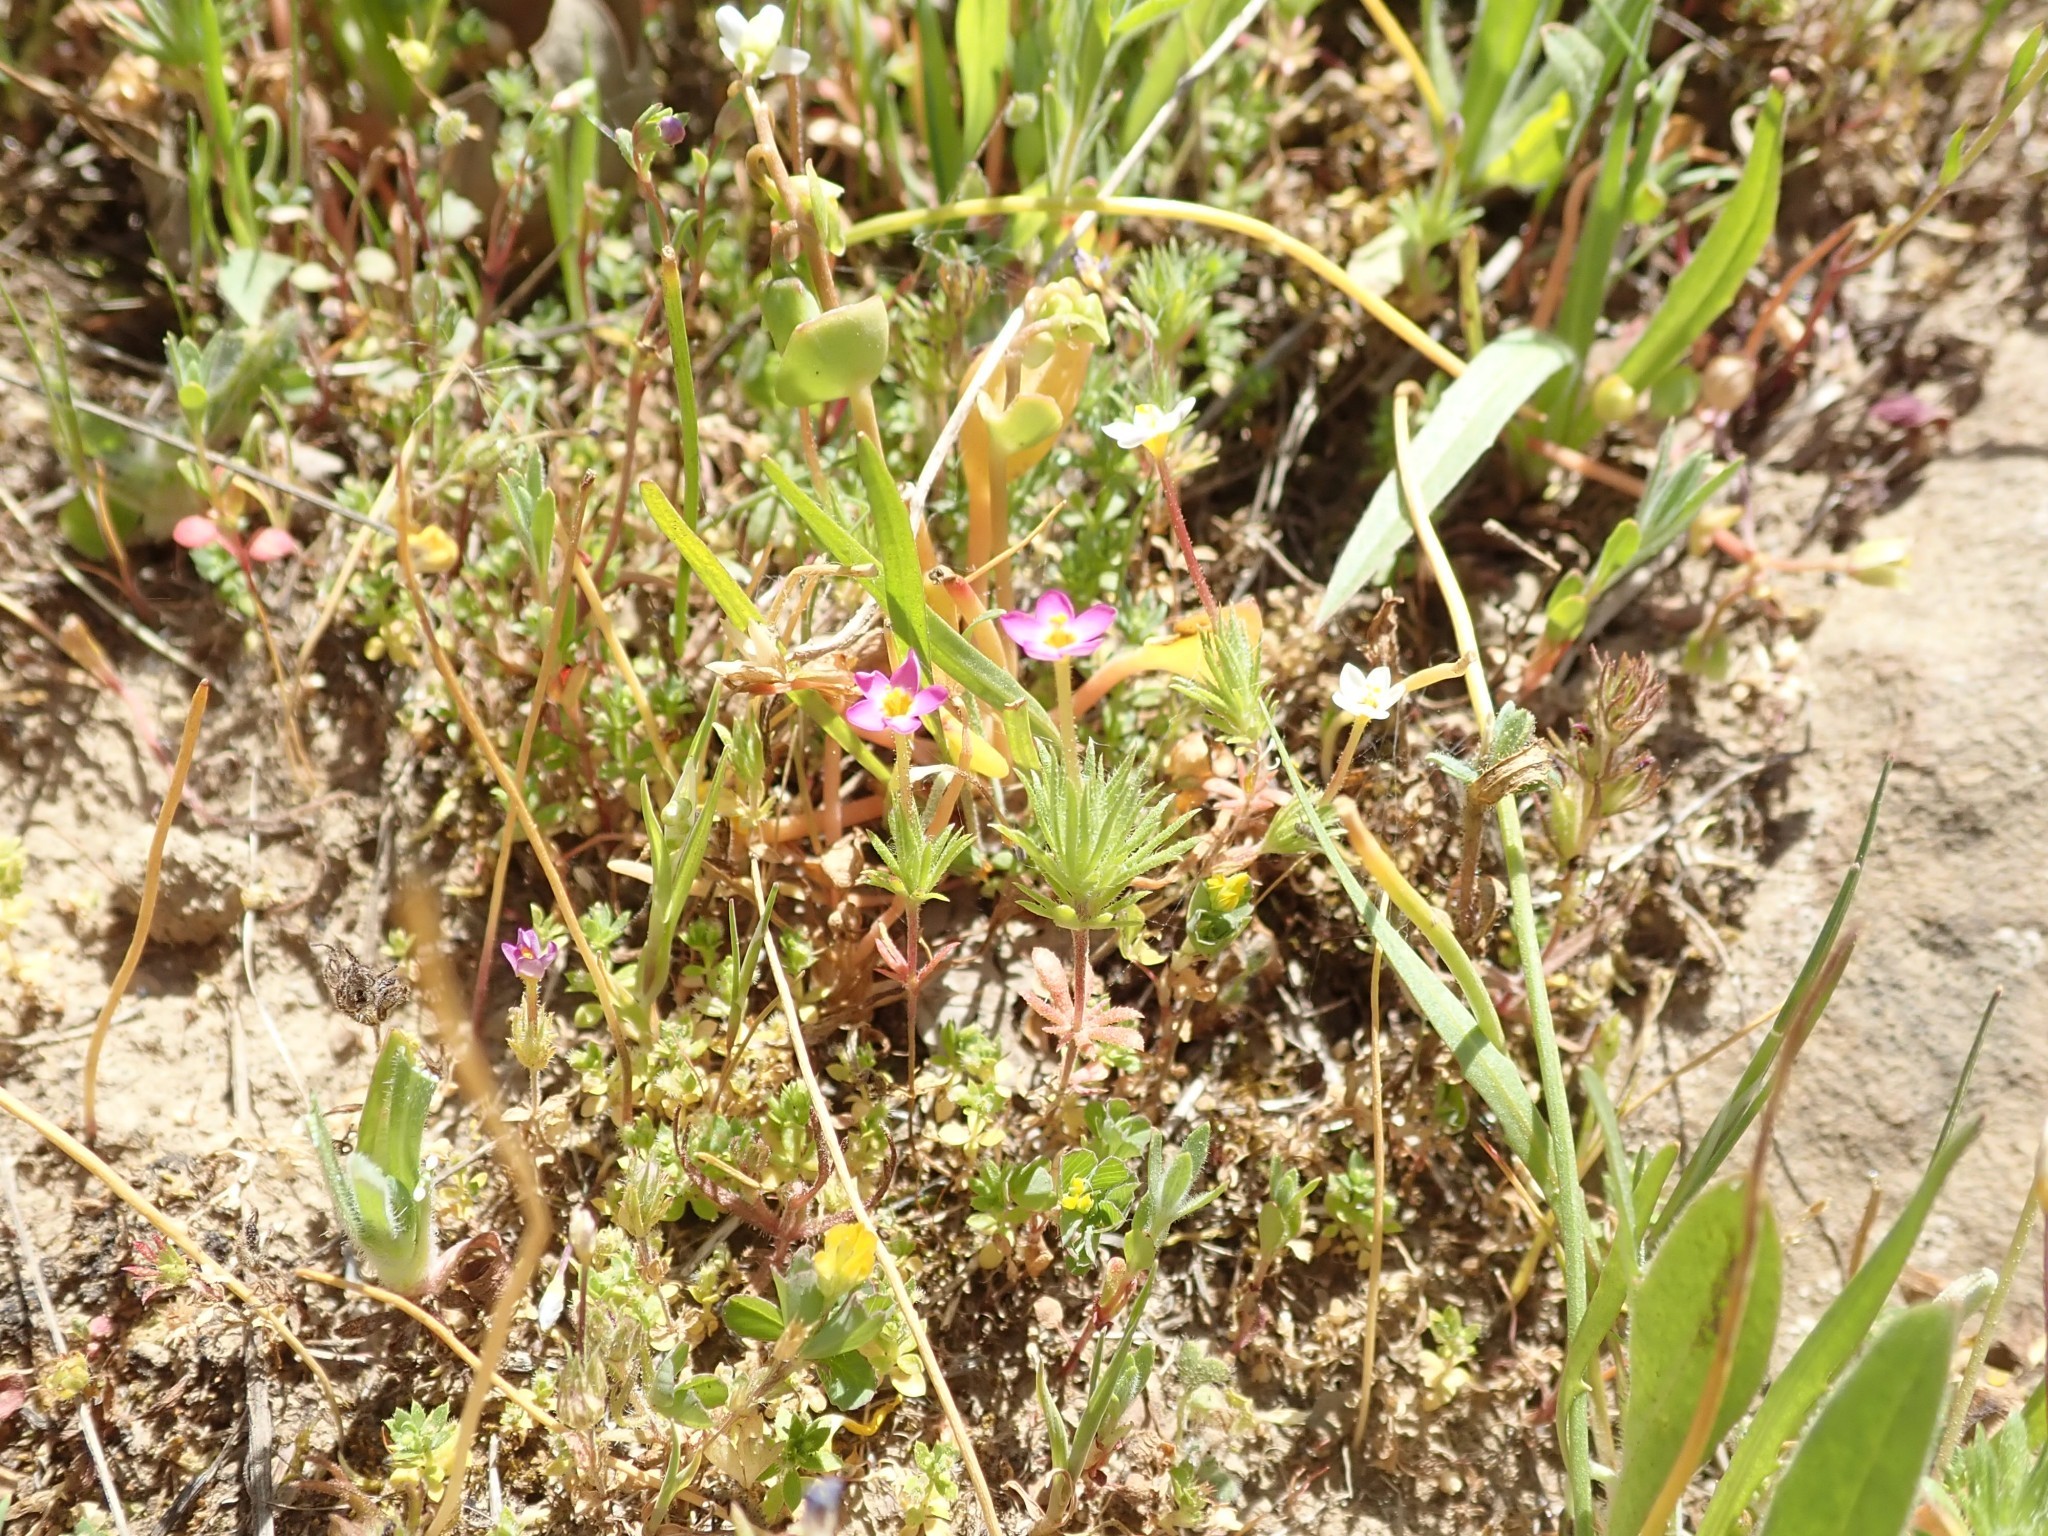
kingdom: Plantae
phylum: Tracheophyta
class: Magnoliopsida
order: Ericales
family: Polemoniaceae
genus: Leptosiphon
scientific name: Leptosiphon bicolor
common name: True babystars
